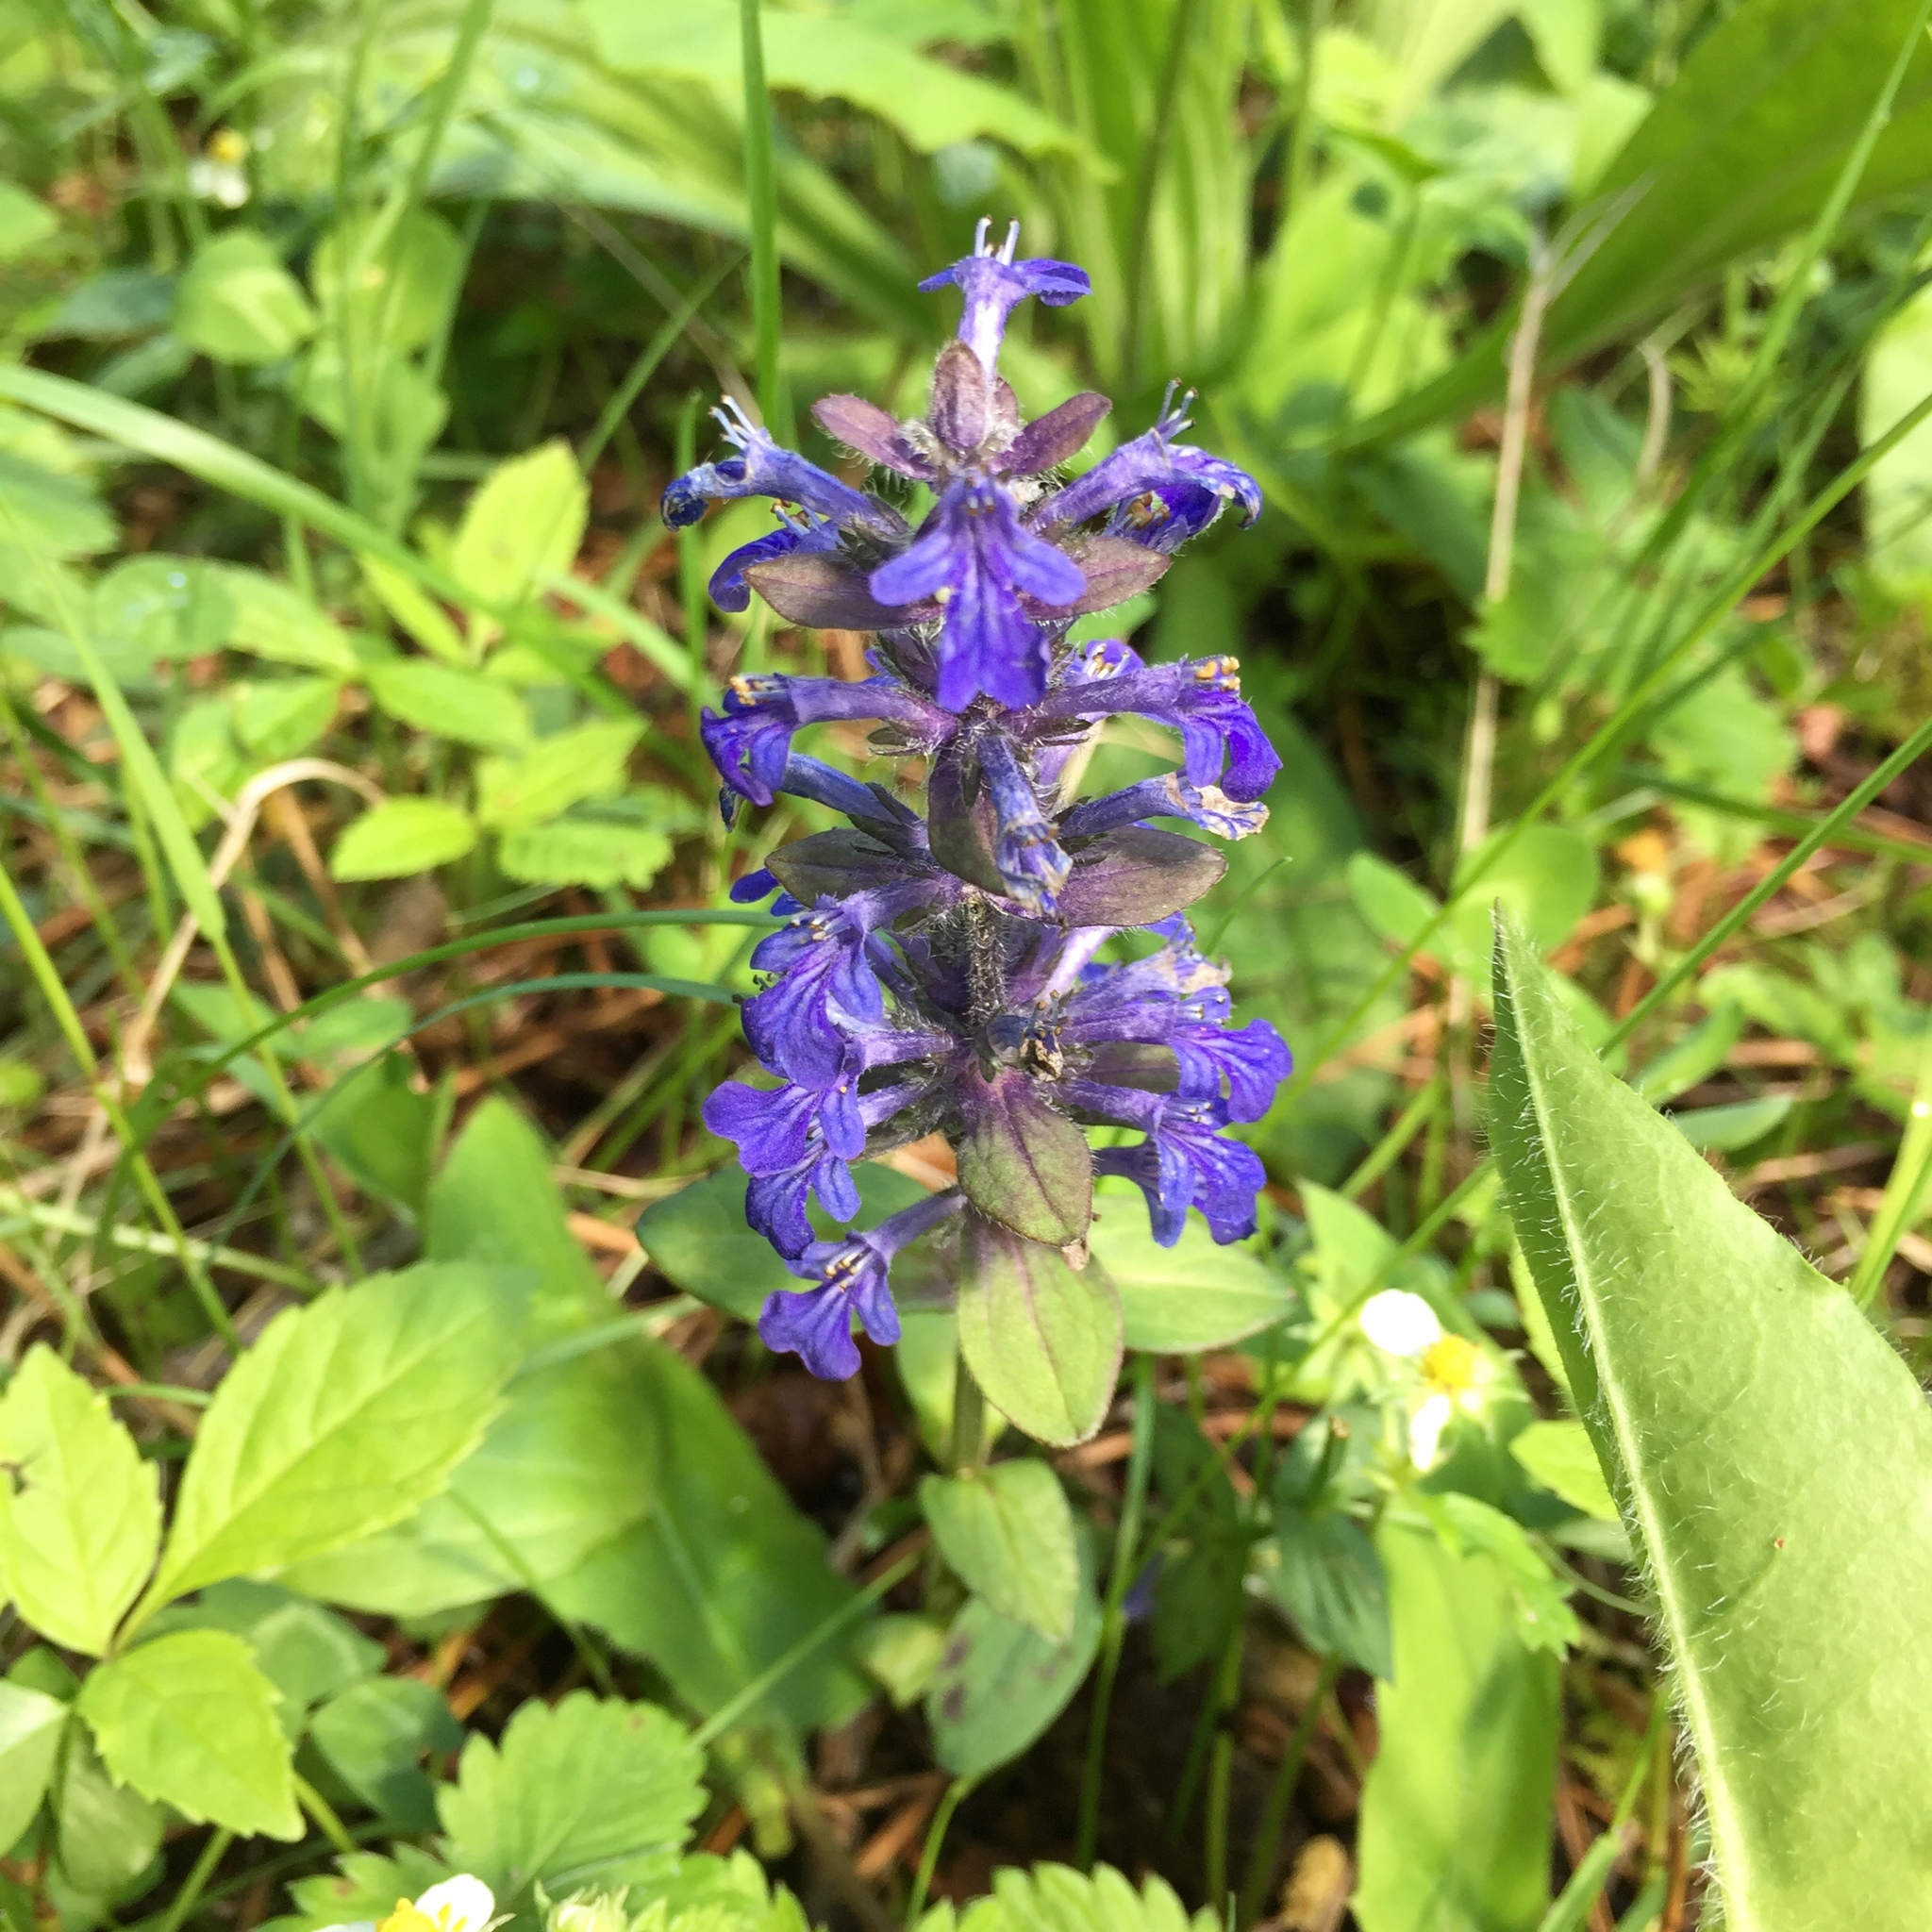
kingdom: Plantae
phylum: Tracheophyta
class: Magnoliopsida
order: Lamiales
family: Lamiaceae
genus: Ajuga
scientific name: Ajuga reptans
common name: Bugle
